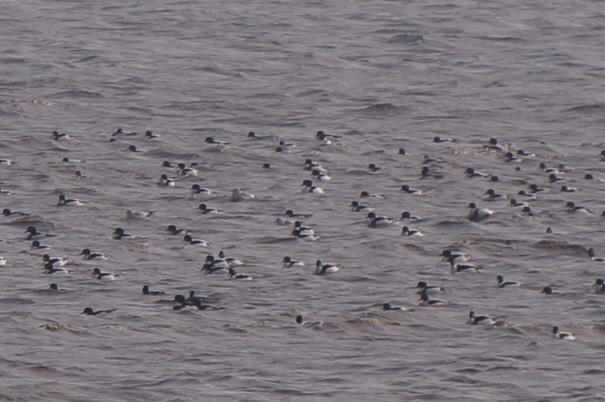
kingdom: Animalia
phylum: Chordata
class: Aves
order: Anseriformes
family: Anatidae
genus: Tadorna
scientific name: Tadorna tadorna
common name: Common shelduck
